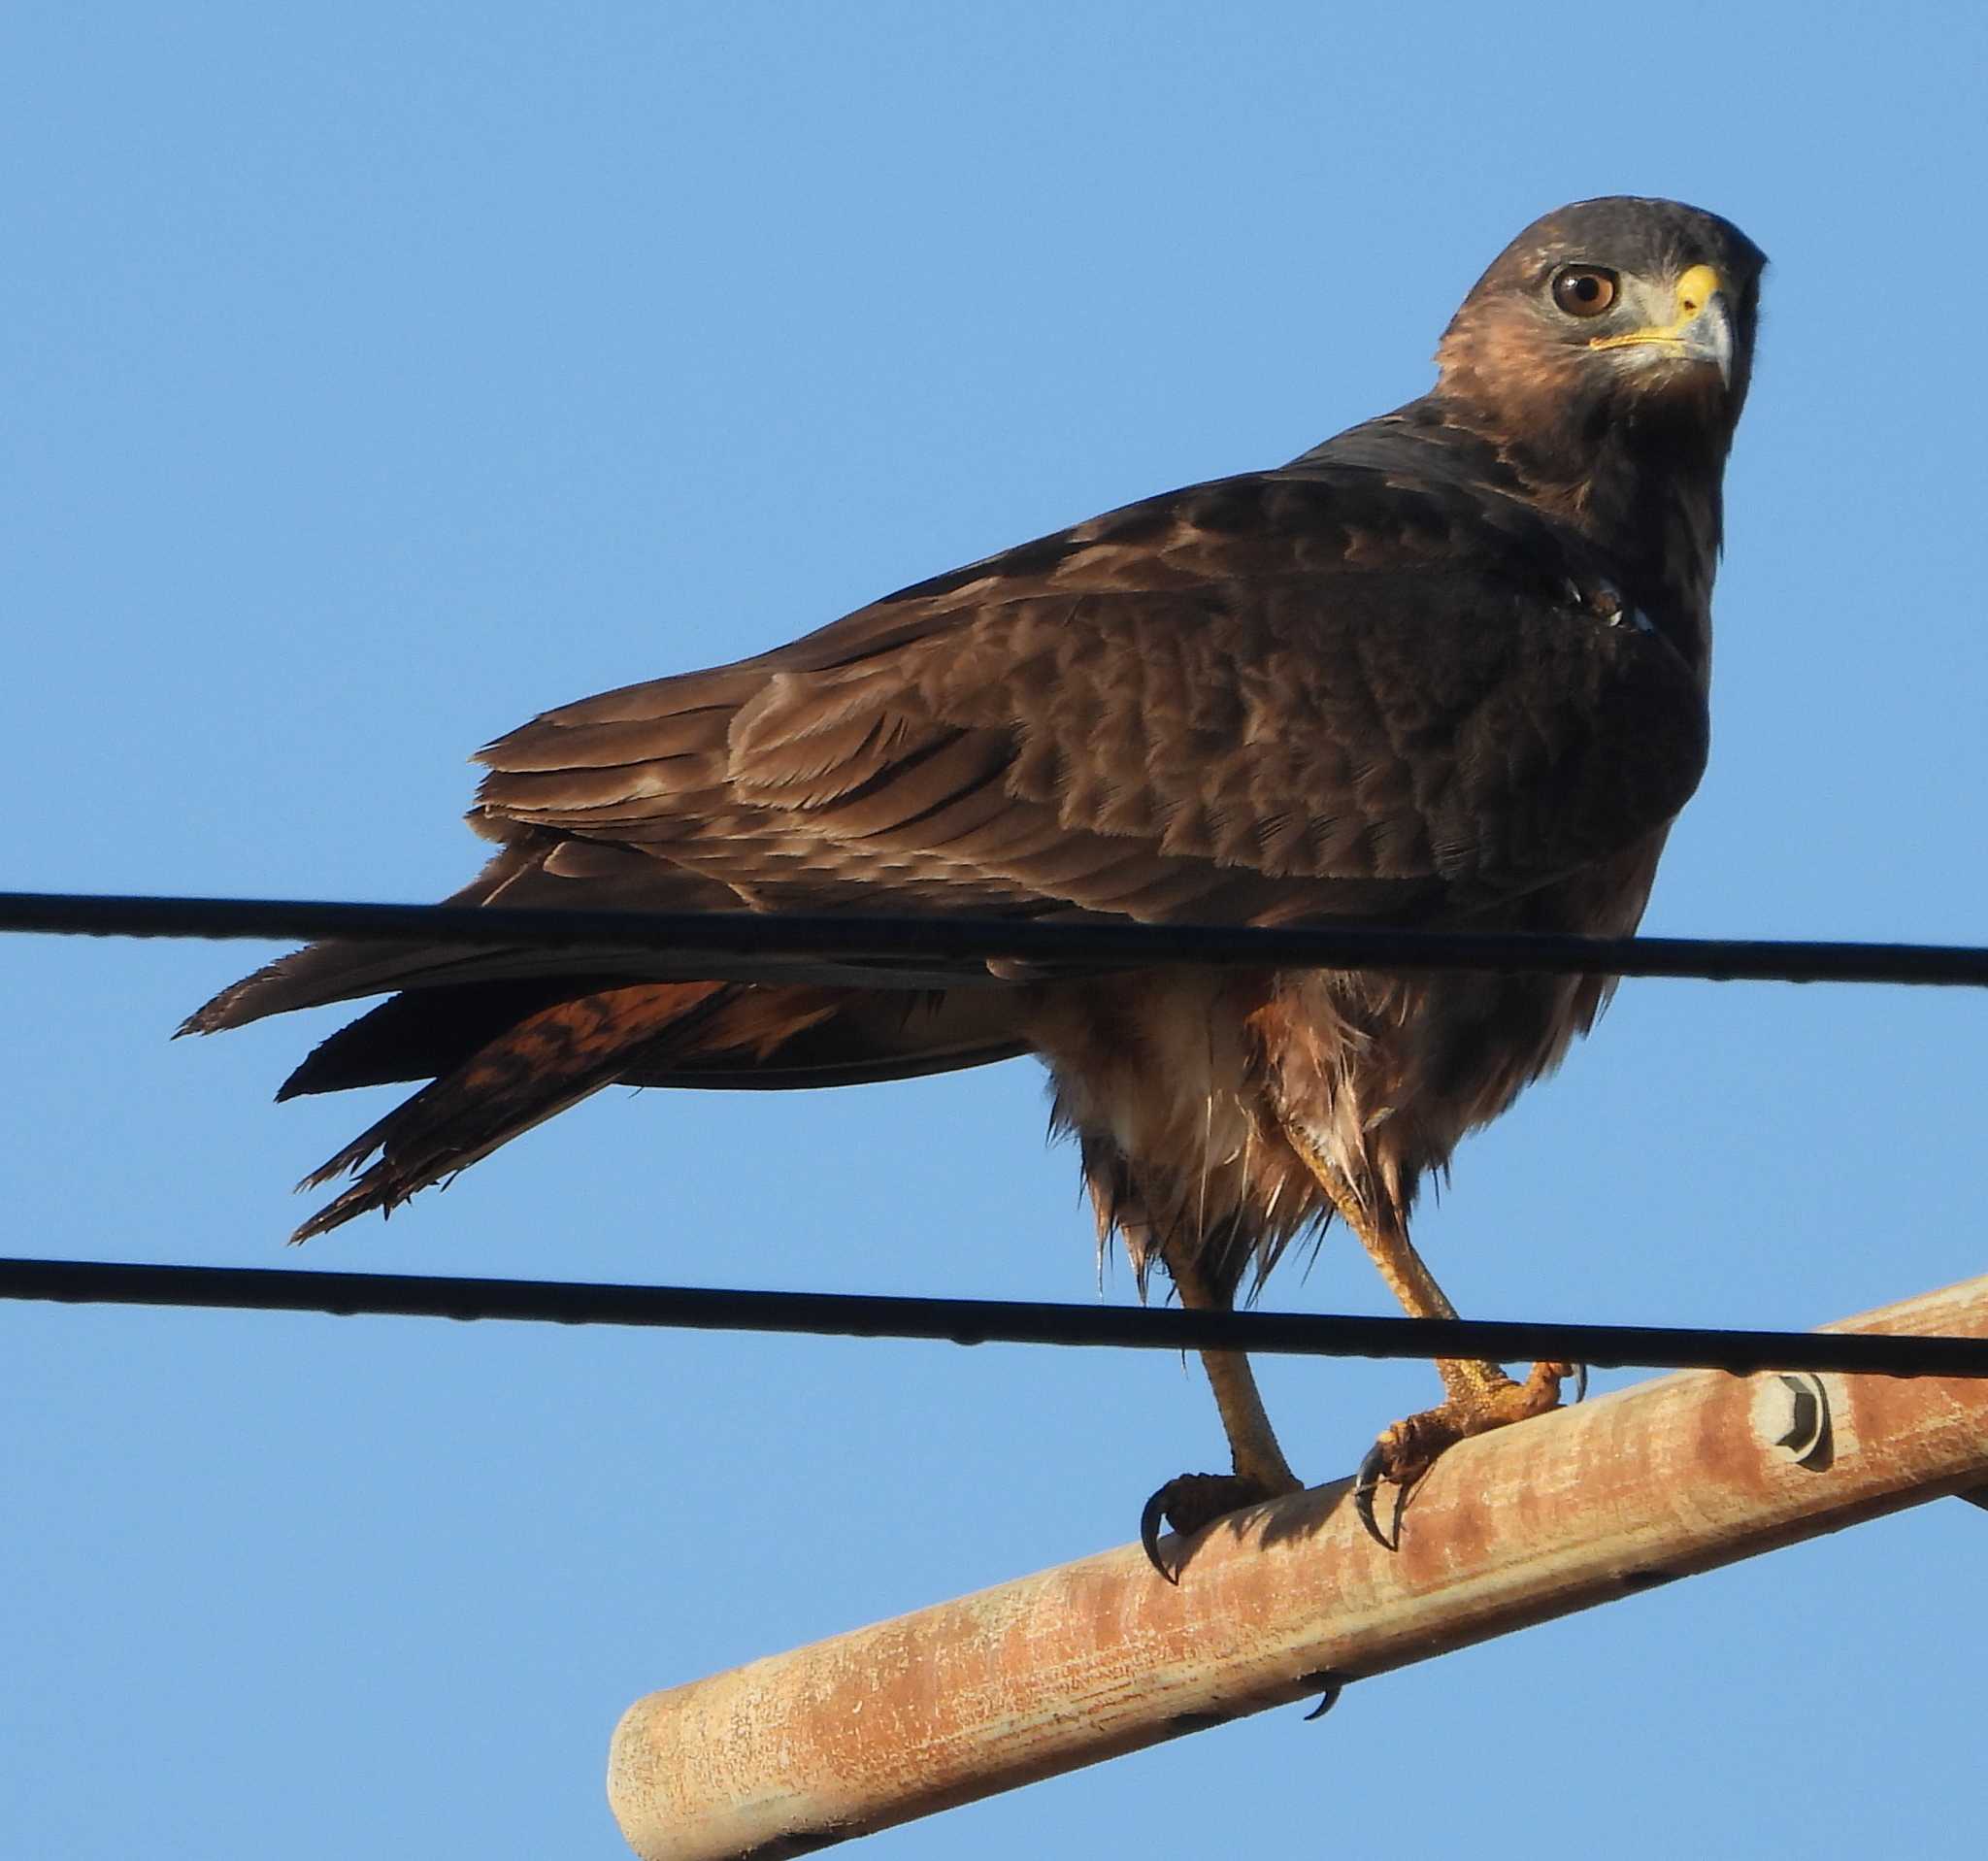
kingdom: Animalia
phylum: Chordata
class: Aves
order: Accipitriformes
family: Accipitridae
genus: Buteo
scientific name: Buteo rufofuscus
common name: Jackal buzzard
